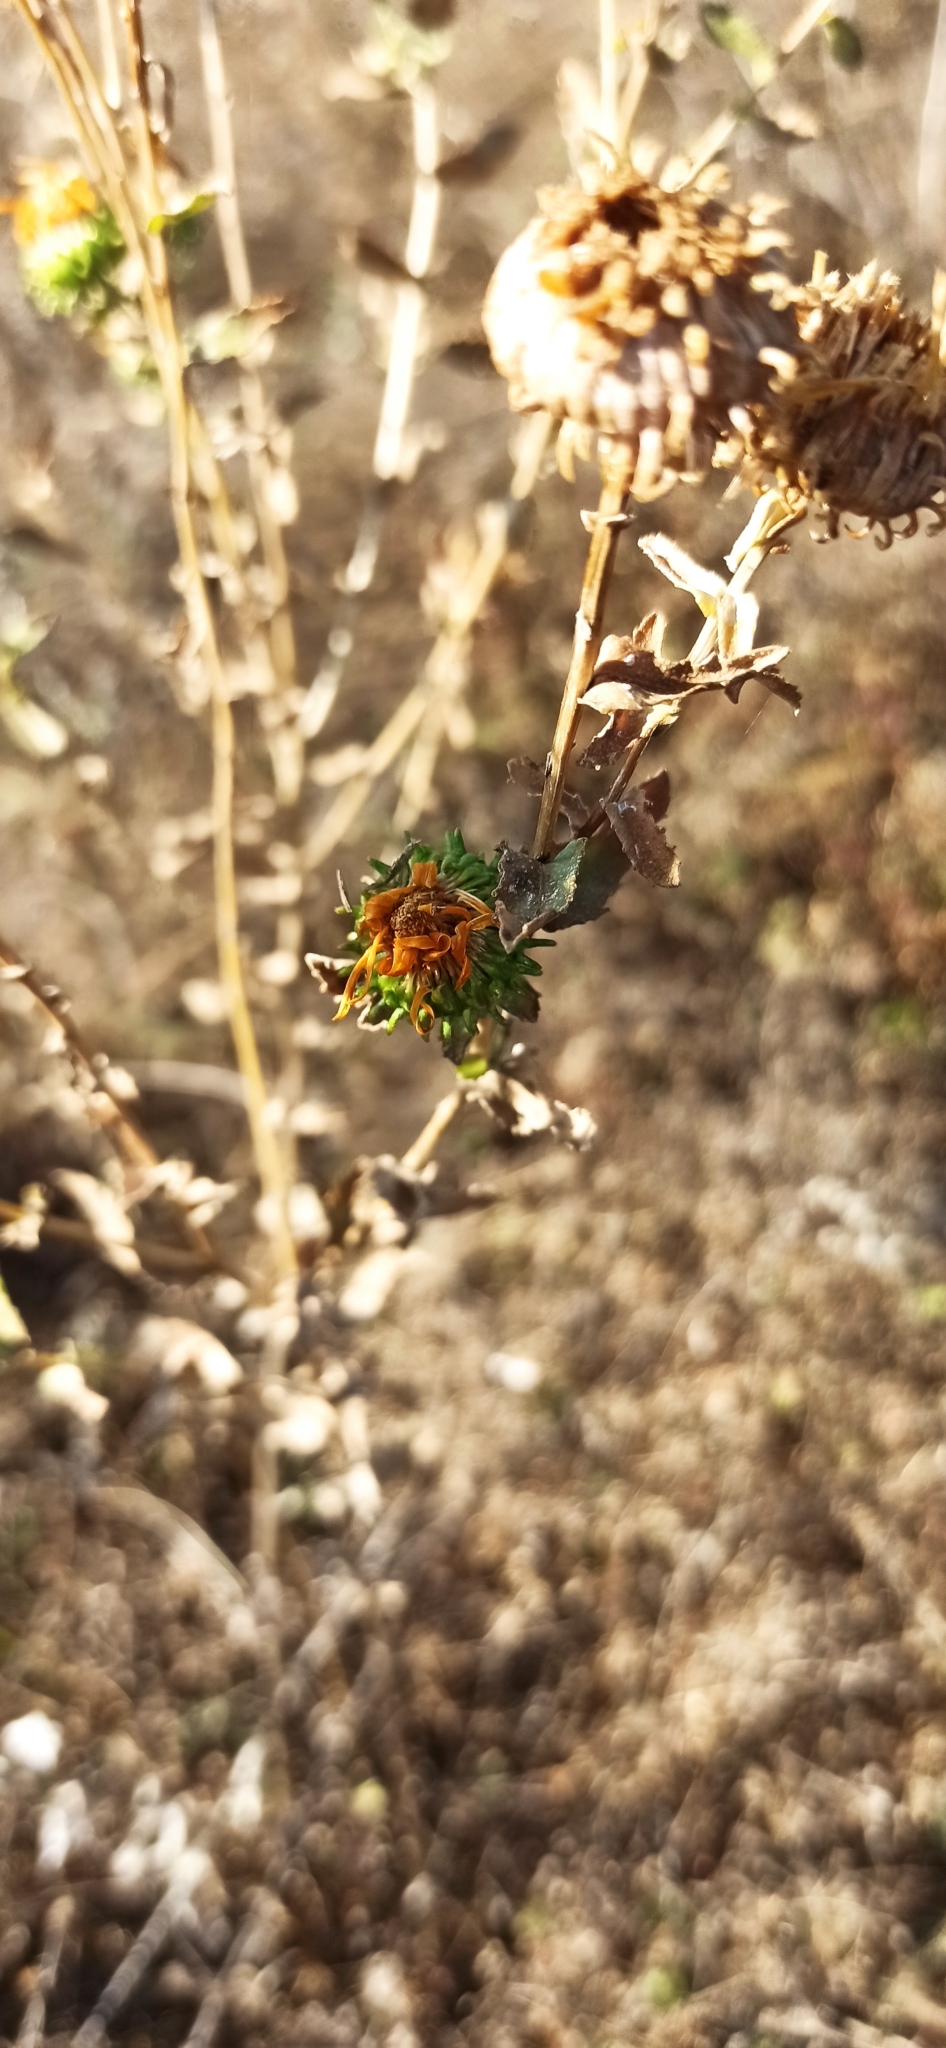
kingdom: Plantae
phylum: Tracheophyta
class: Magnoliopsida
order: Asterales
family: Asteraceae
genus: Grindelia
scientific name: Grindelia squarrosa
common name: Curly-cup gumweed
